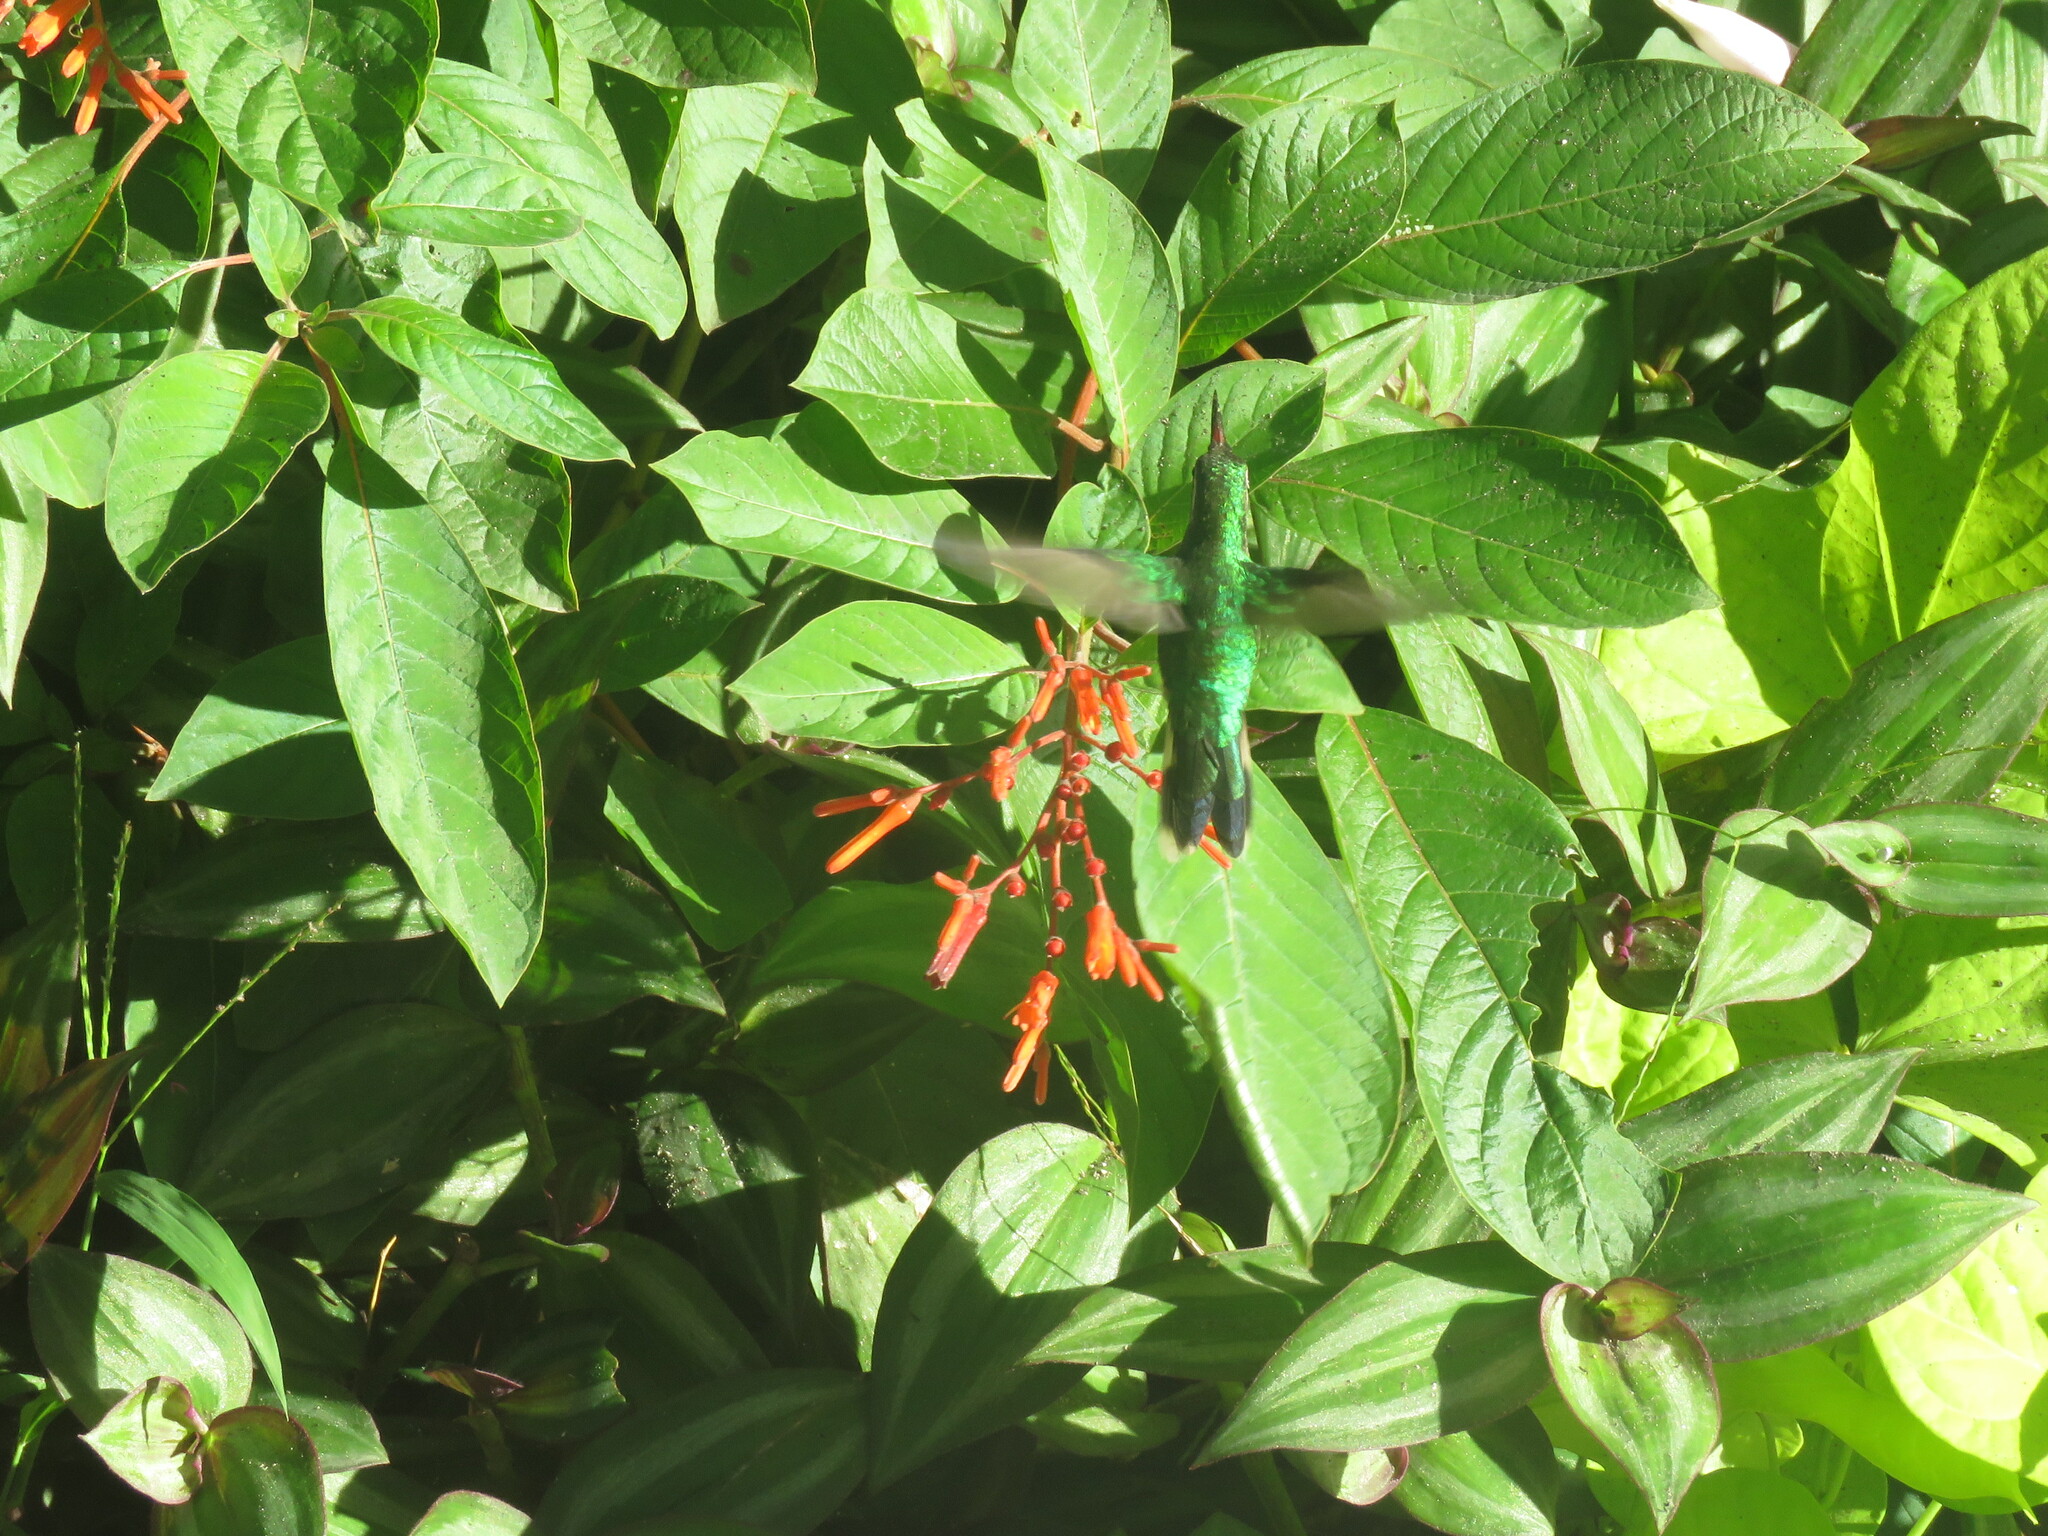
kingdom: Animalia
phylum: Chordata
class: Aves
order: Apodiformes
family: Trochilidae
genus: Cynanthus
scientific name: Cynanthus forficatus
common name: Cozumel emerald
